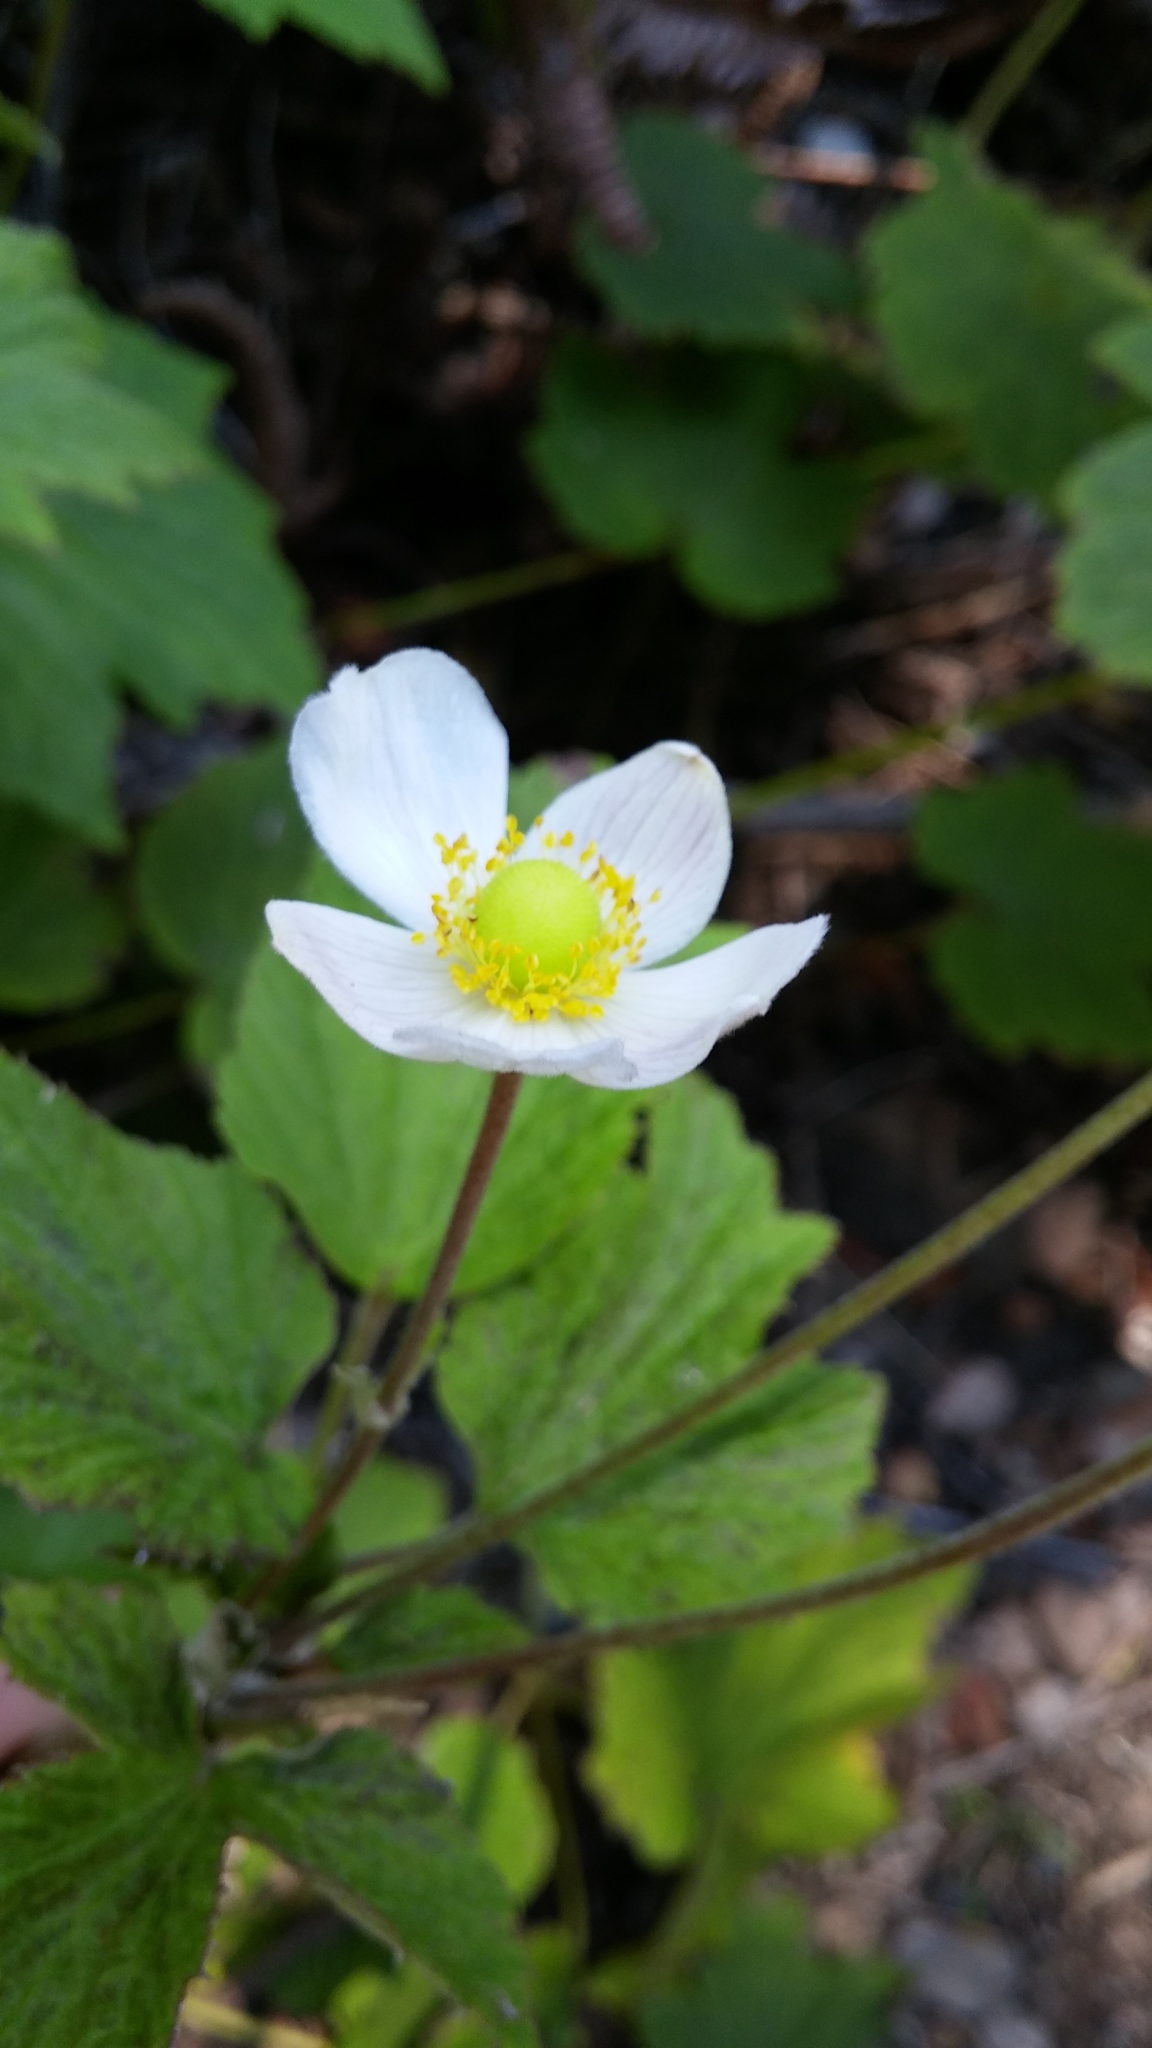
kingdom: Plantae
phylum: Tracheophyta
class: Magnoliopsida
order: Ranunculales
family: Ranunculaceae
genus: Eriocapitella
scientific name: Eriocapitella japonica
